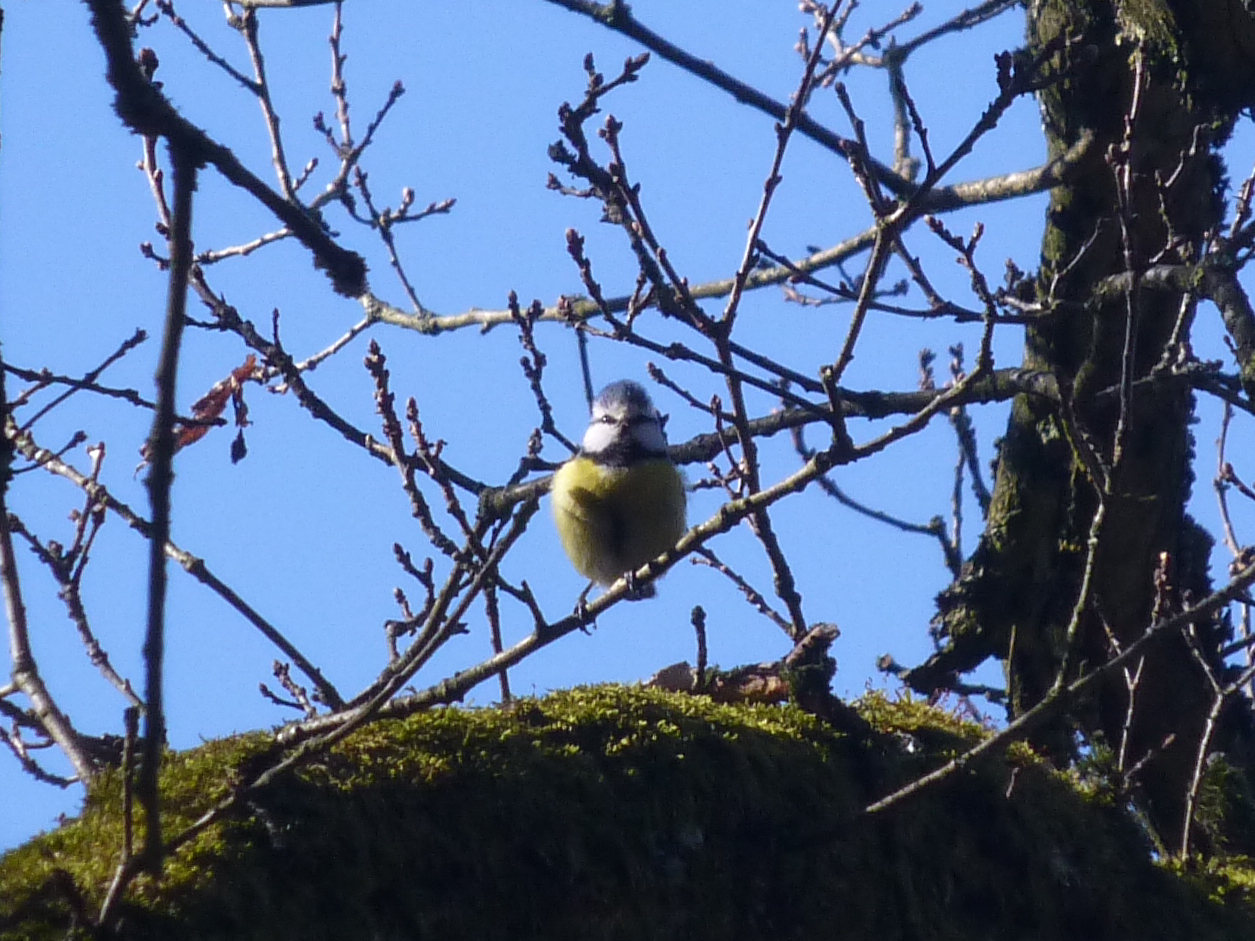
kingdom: Animalia
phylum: Chordata
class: Aves
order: Passeriformes
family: Paridae
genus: Cyanistes
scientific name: Cyanistes caeruleus
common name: Eurasian blue tit
